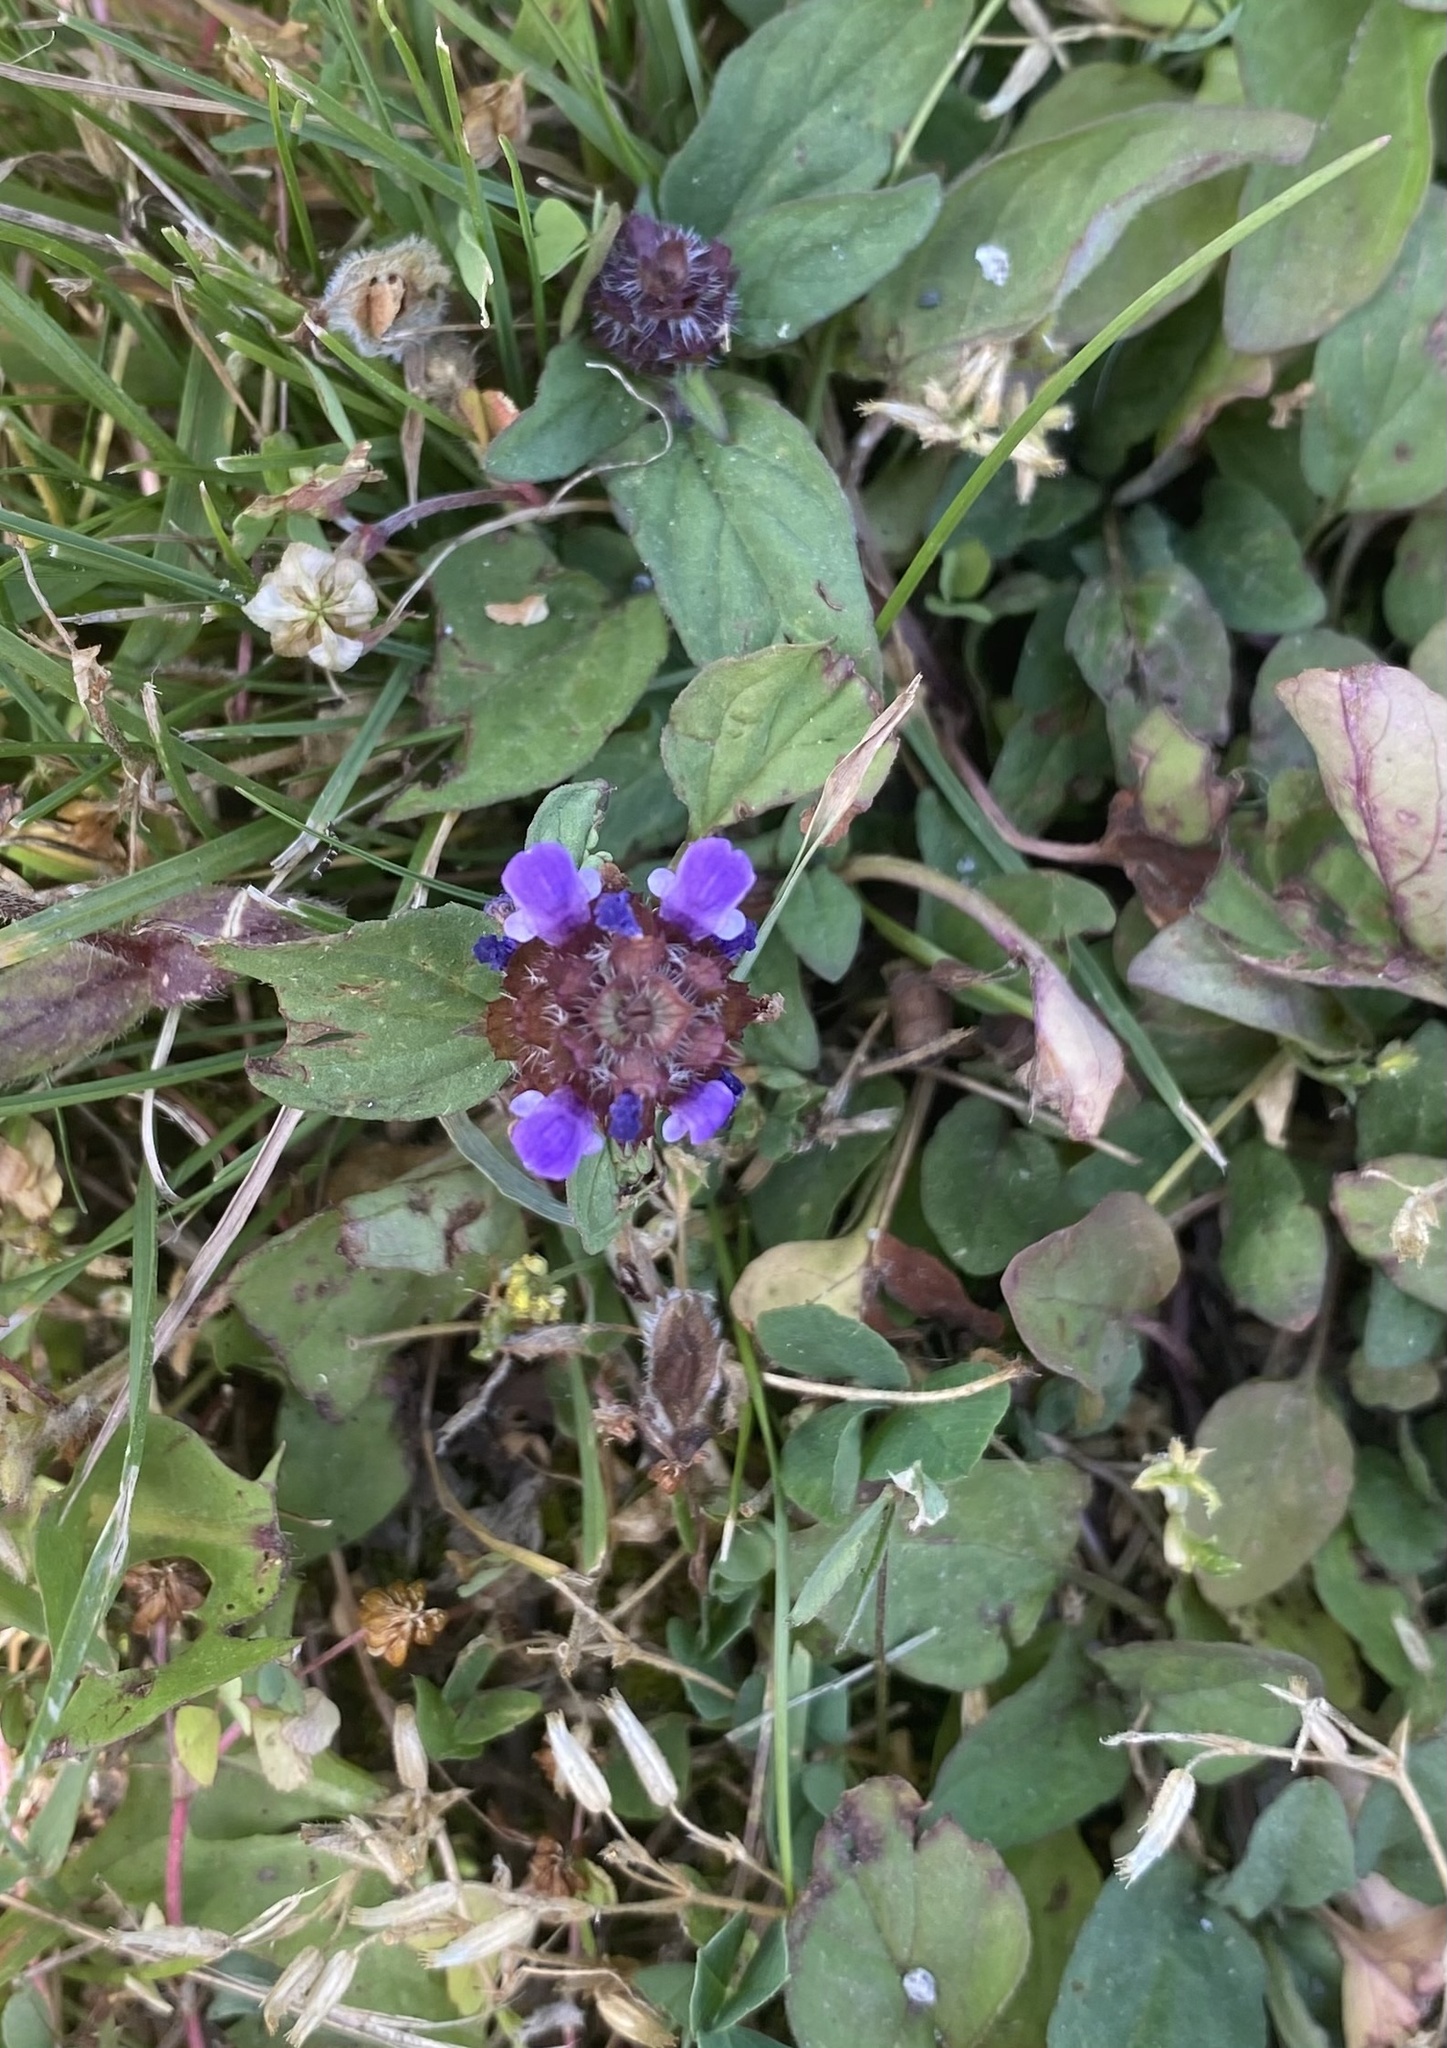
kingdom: Plantae
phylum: Tracheophyta
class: Magnoliopsida
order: Lamiales
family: Lamiaceae
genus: Prunella
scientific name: Prunella vulgaris
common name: Heal-all
